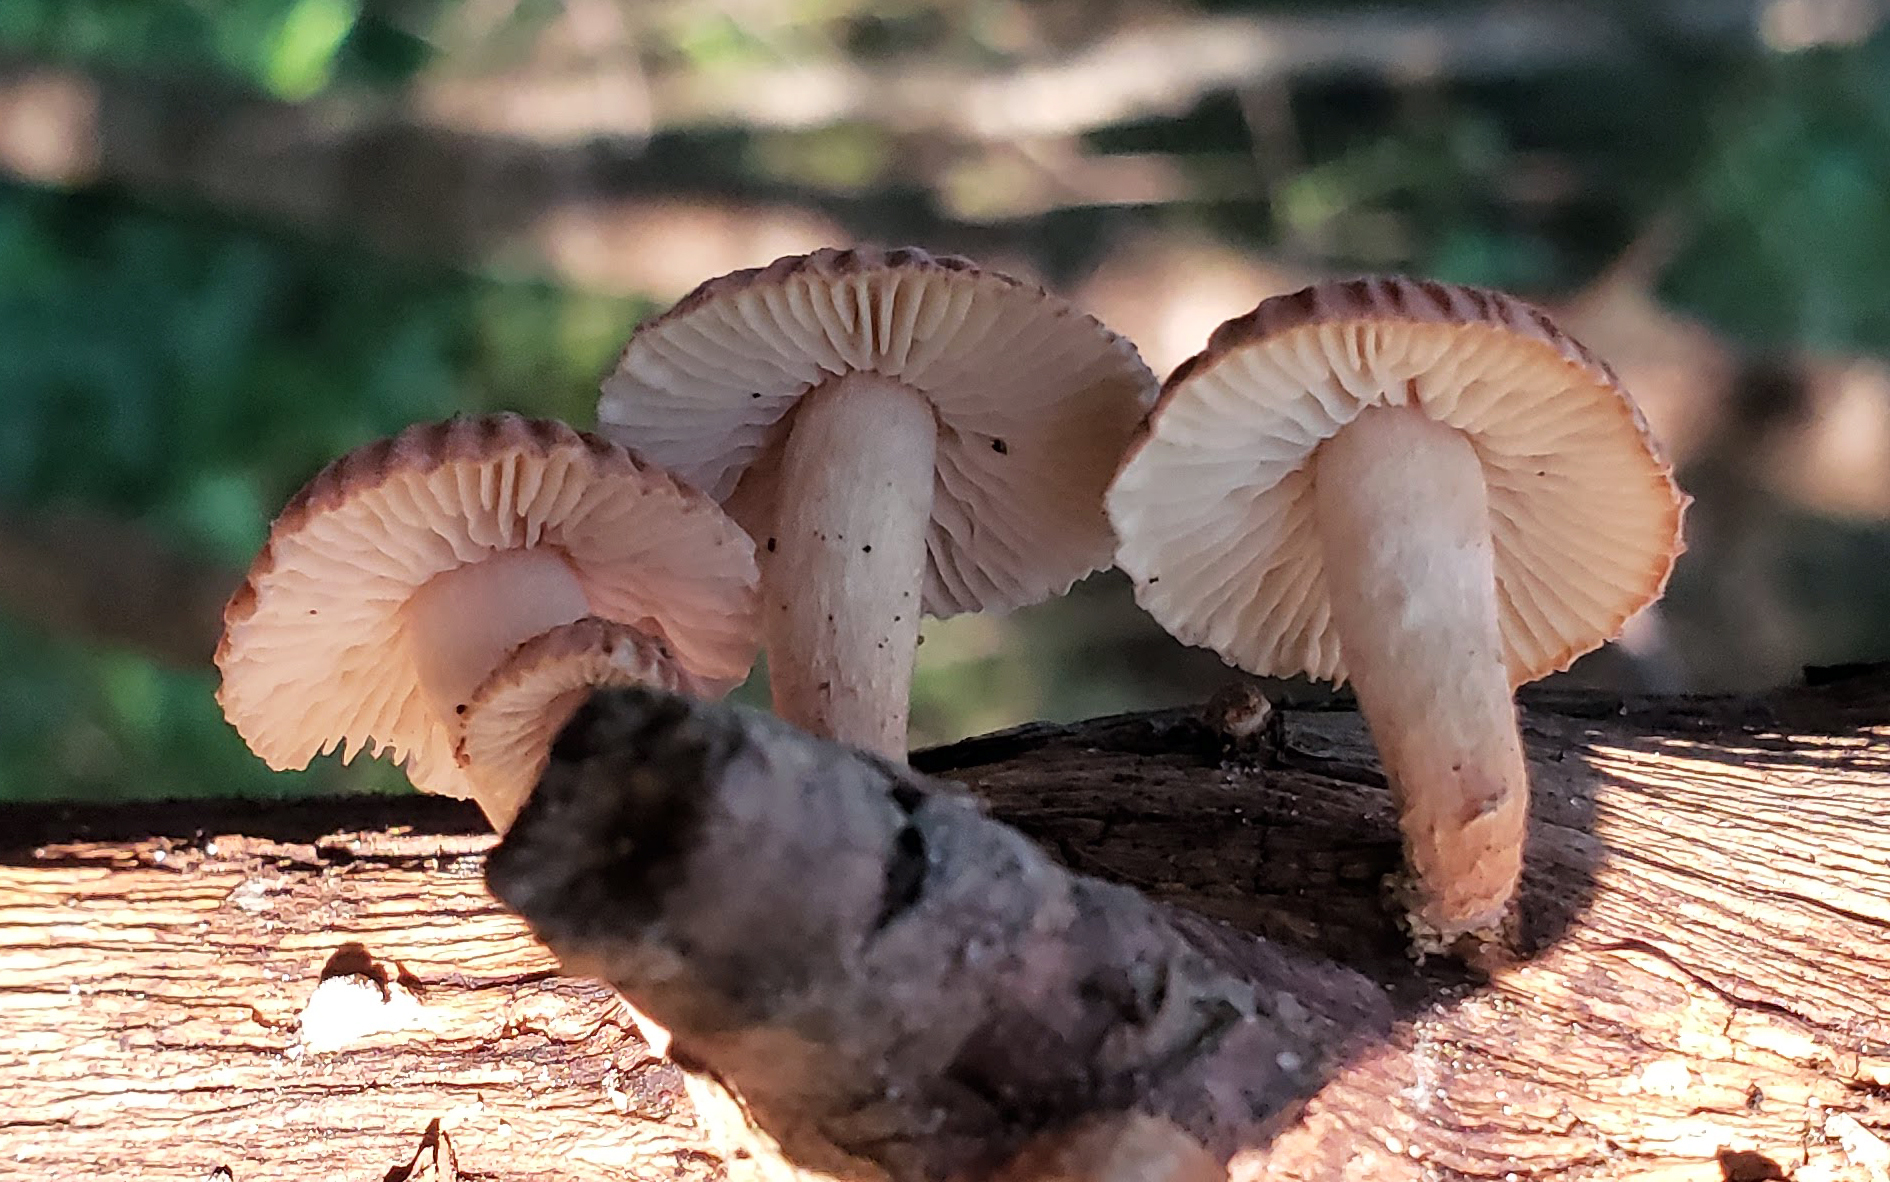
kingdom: Fungi
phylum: Basidiomycota
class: Agaricomycetes
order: Gloeophyllales
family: Gloeophyllaceae
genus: Heliocybe
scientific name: Heliocybe sulcata
